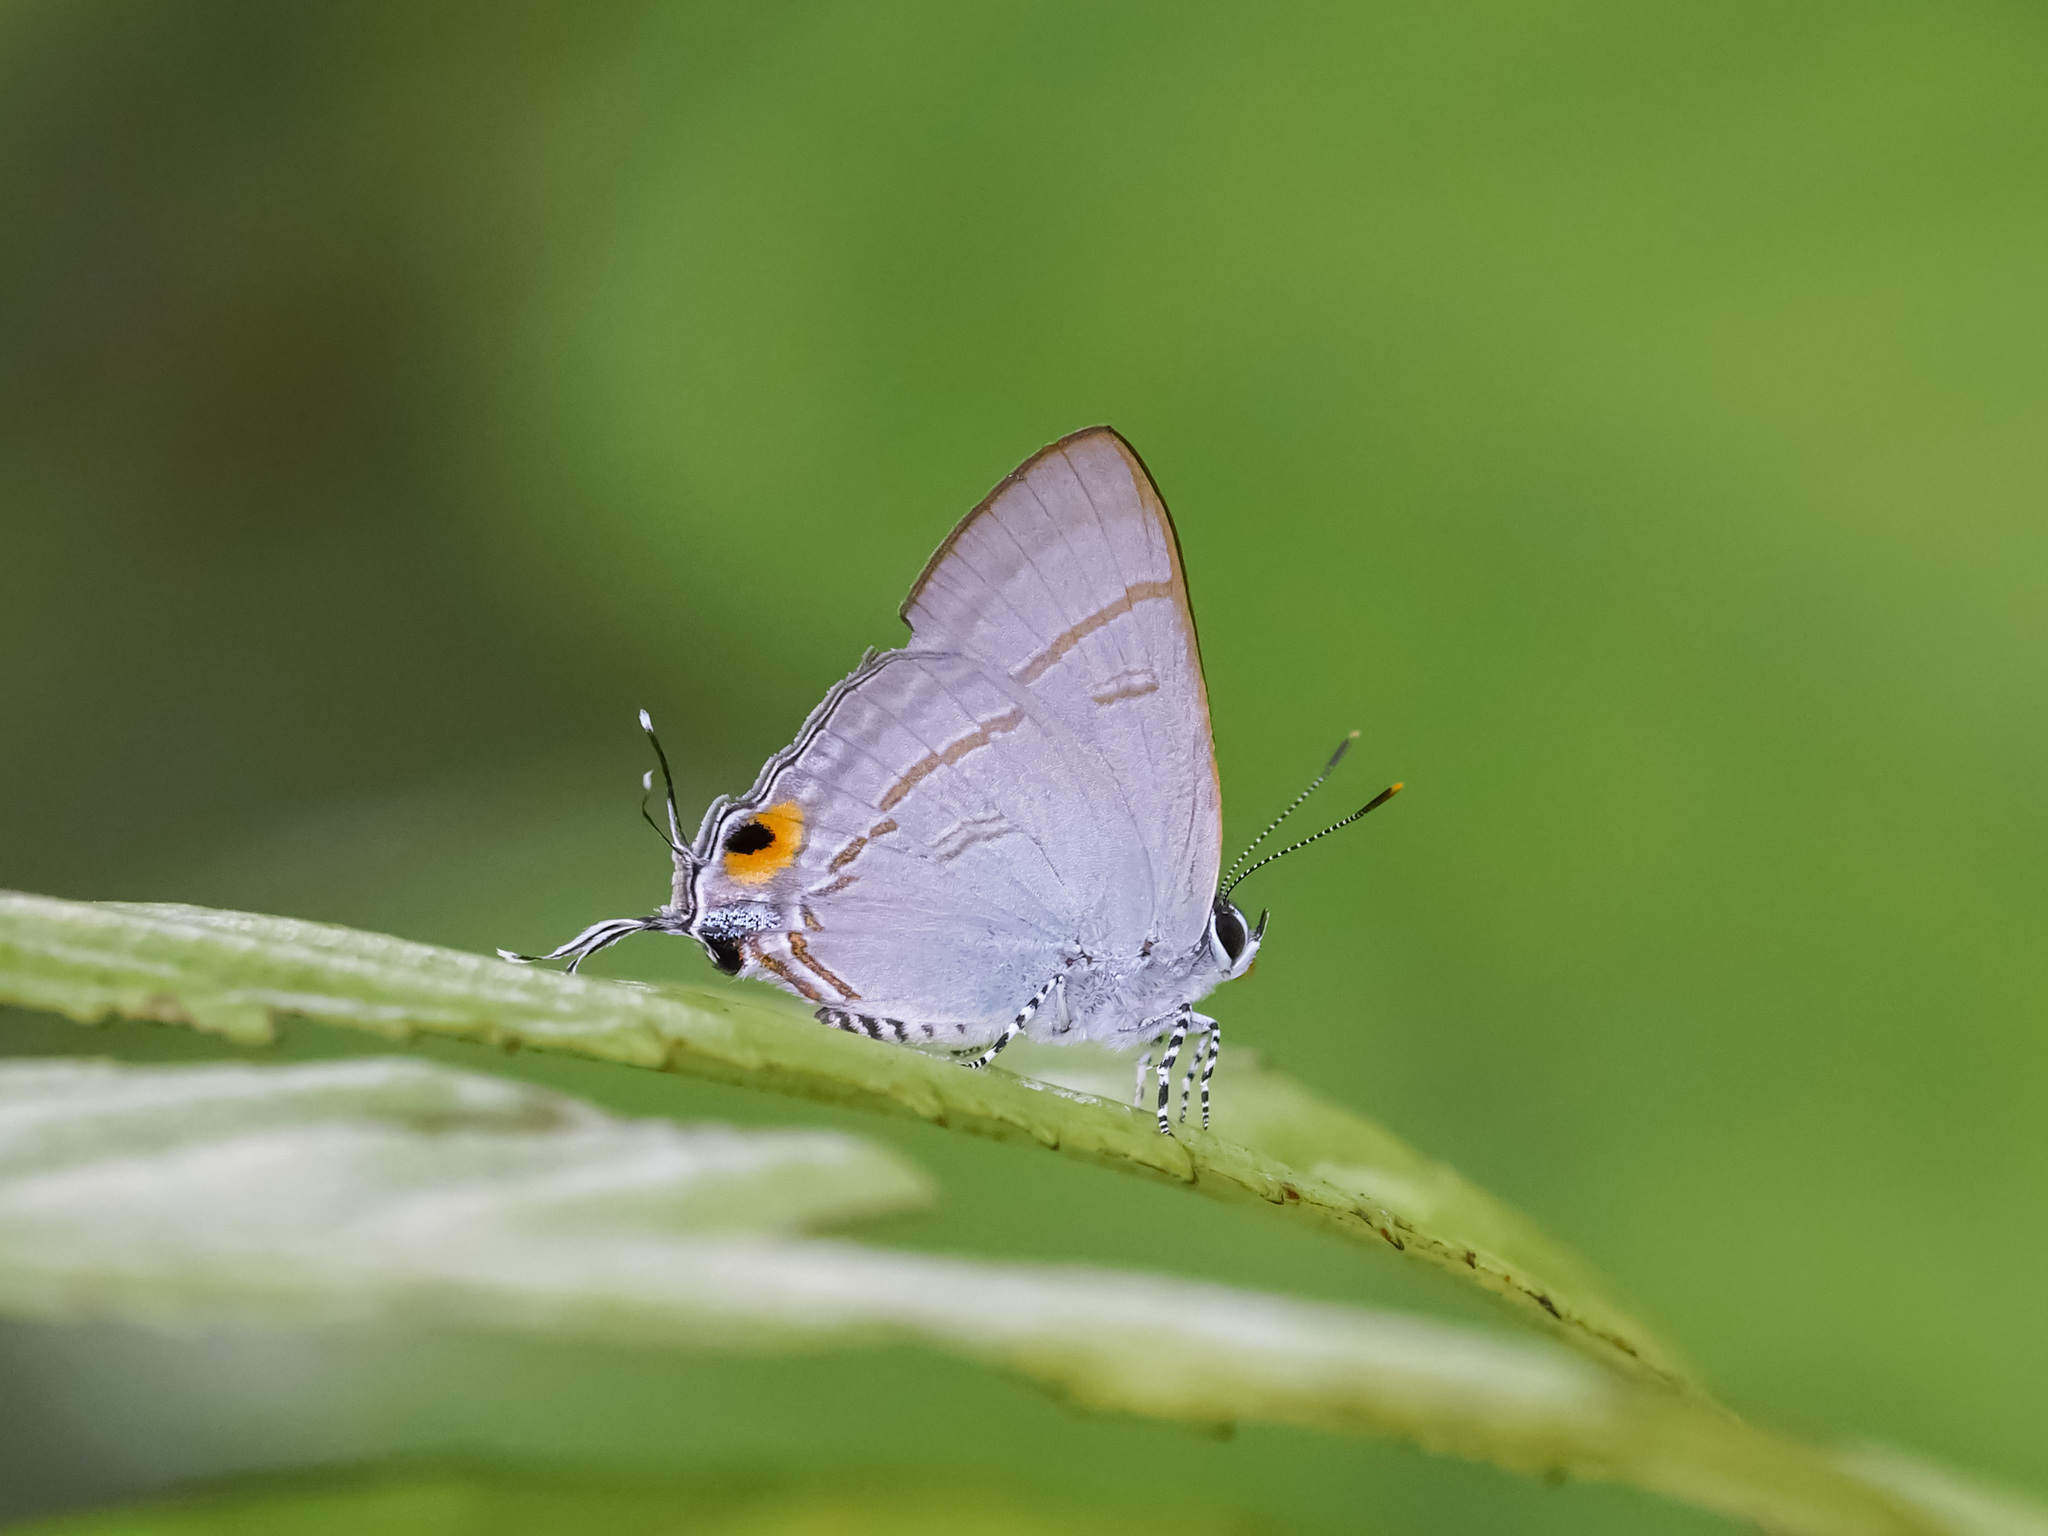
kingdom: Animalia
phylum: Arthropoda
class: Insecta
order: Lepidoptera
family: Lycaenidae
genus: Hypolycaena
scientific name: Hypolycaena erylus
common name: Common tit
